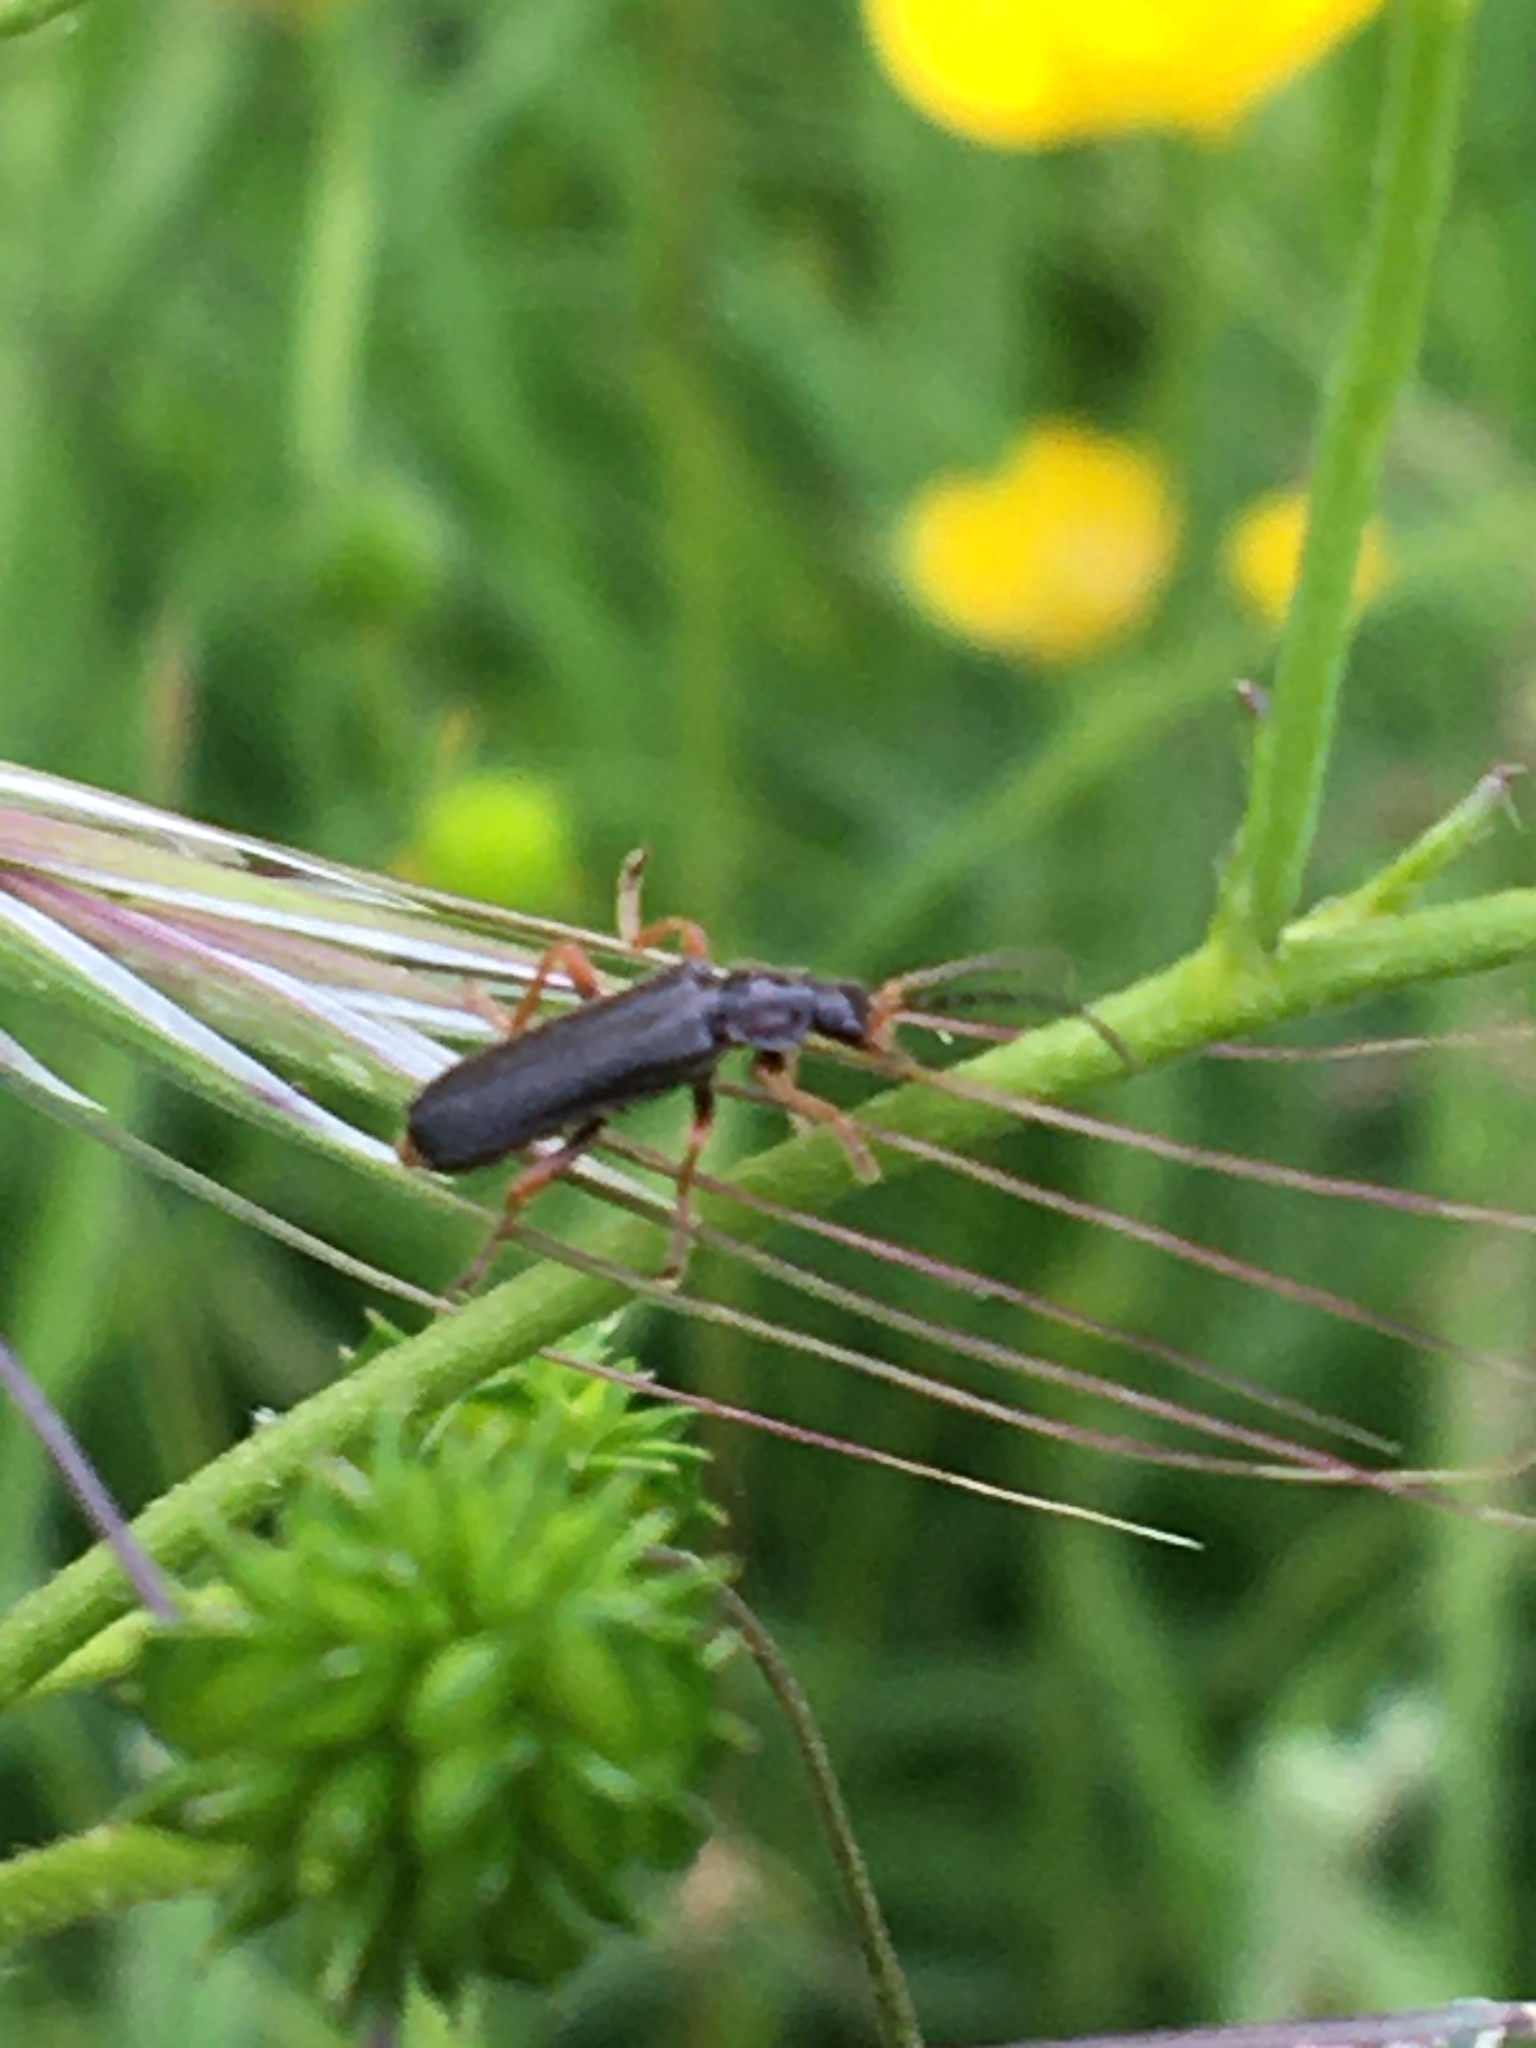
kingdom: Animalia
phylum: Arthropoda
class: Insecta
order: Coleoptera
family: Cantharidae
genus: Cantharis
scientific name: Cantharis flavilabris
